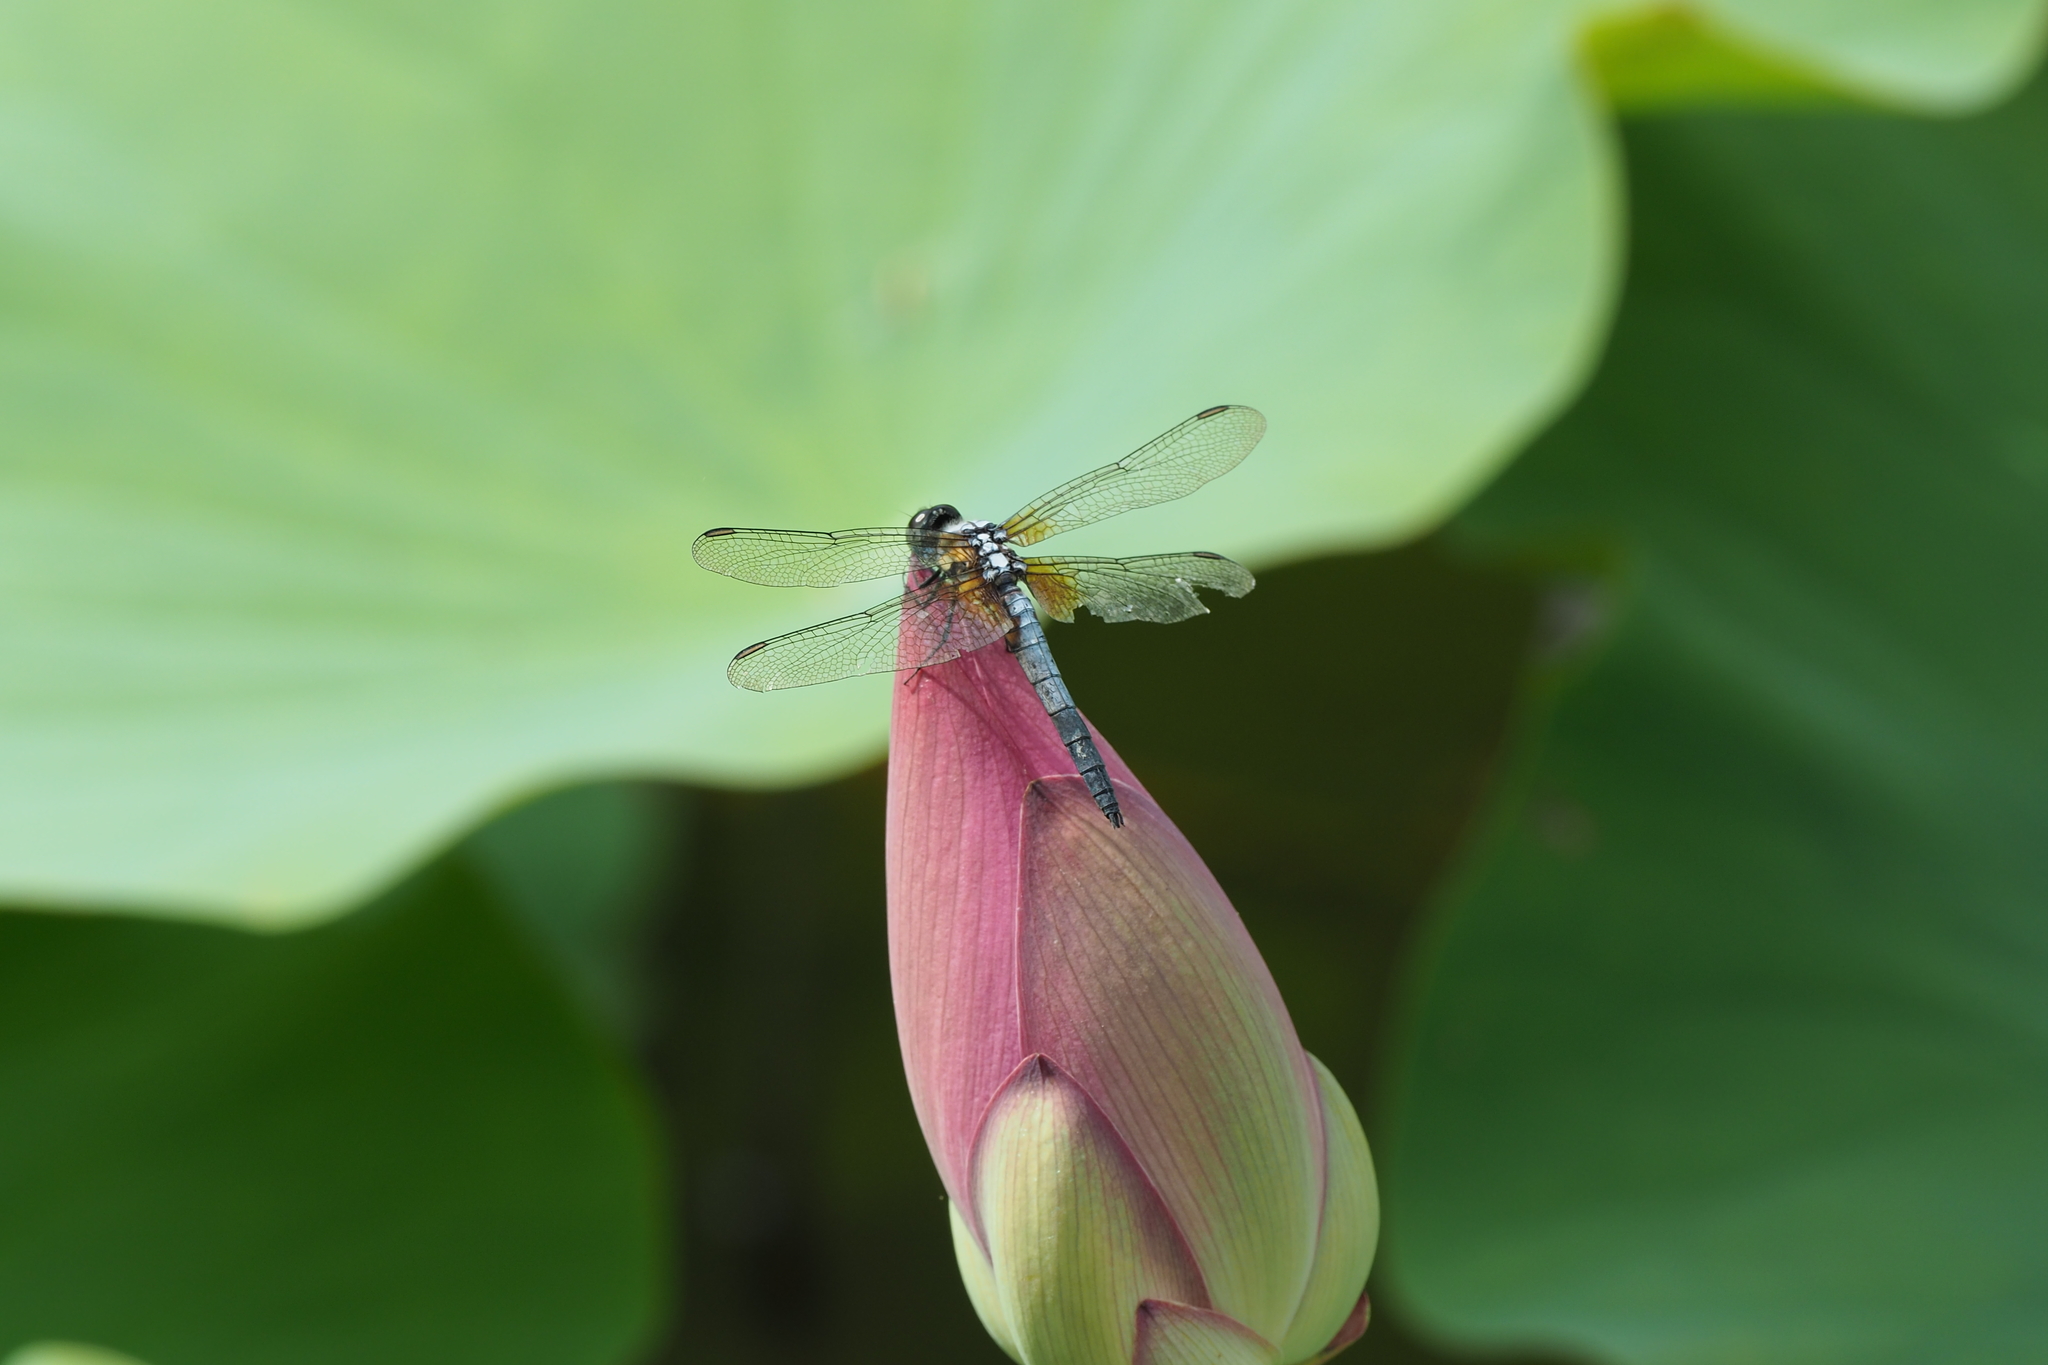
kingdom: Animalia
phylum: Arthropoda
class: Insecta
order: Odonata
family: Libellulidae
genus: Brachydiplax
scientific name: Brachydiplax chalybea
